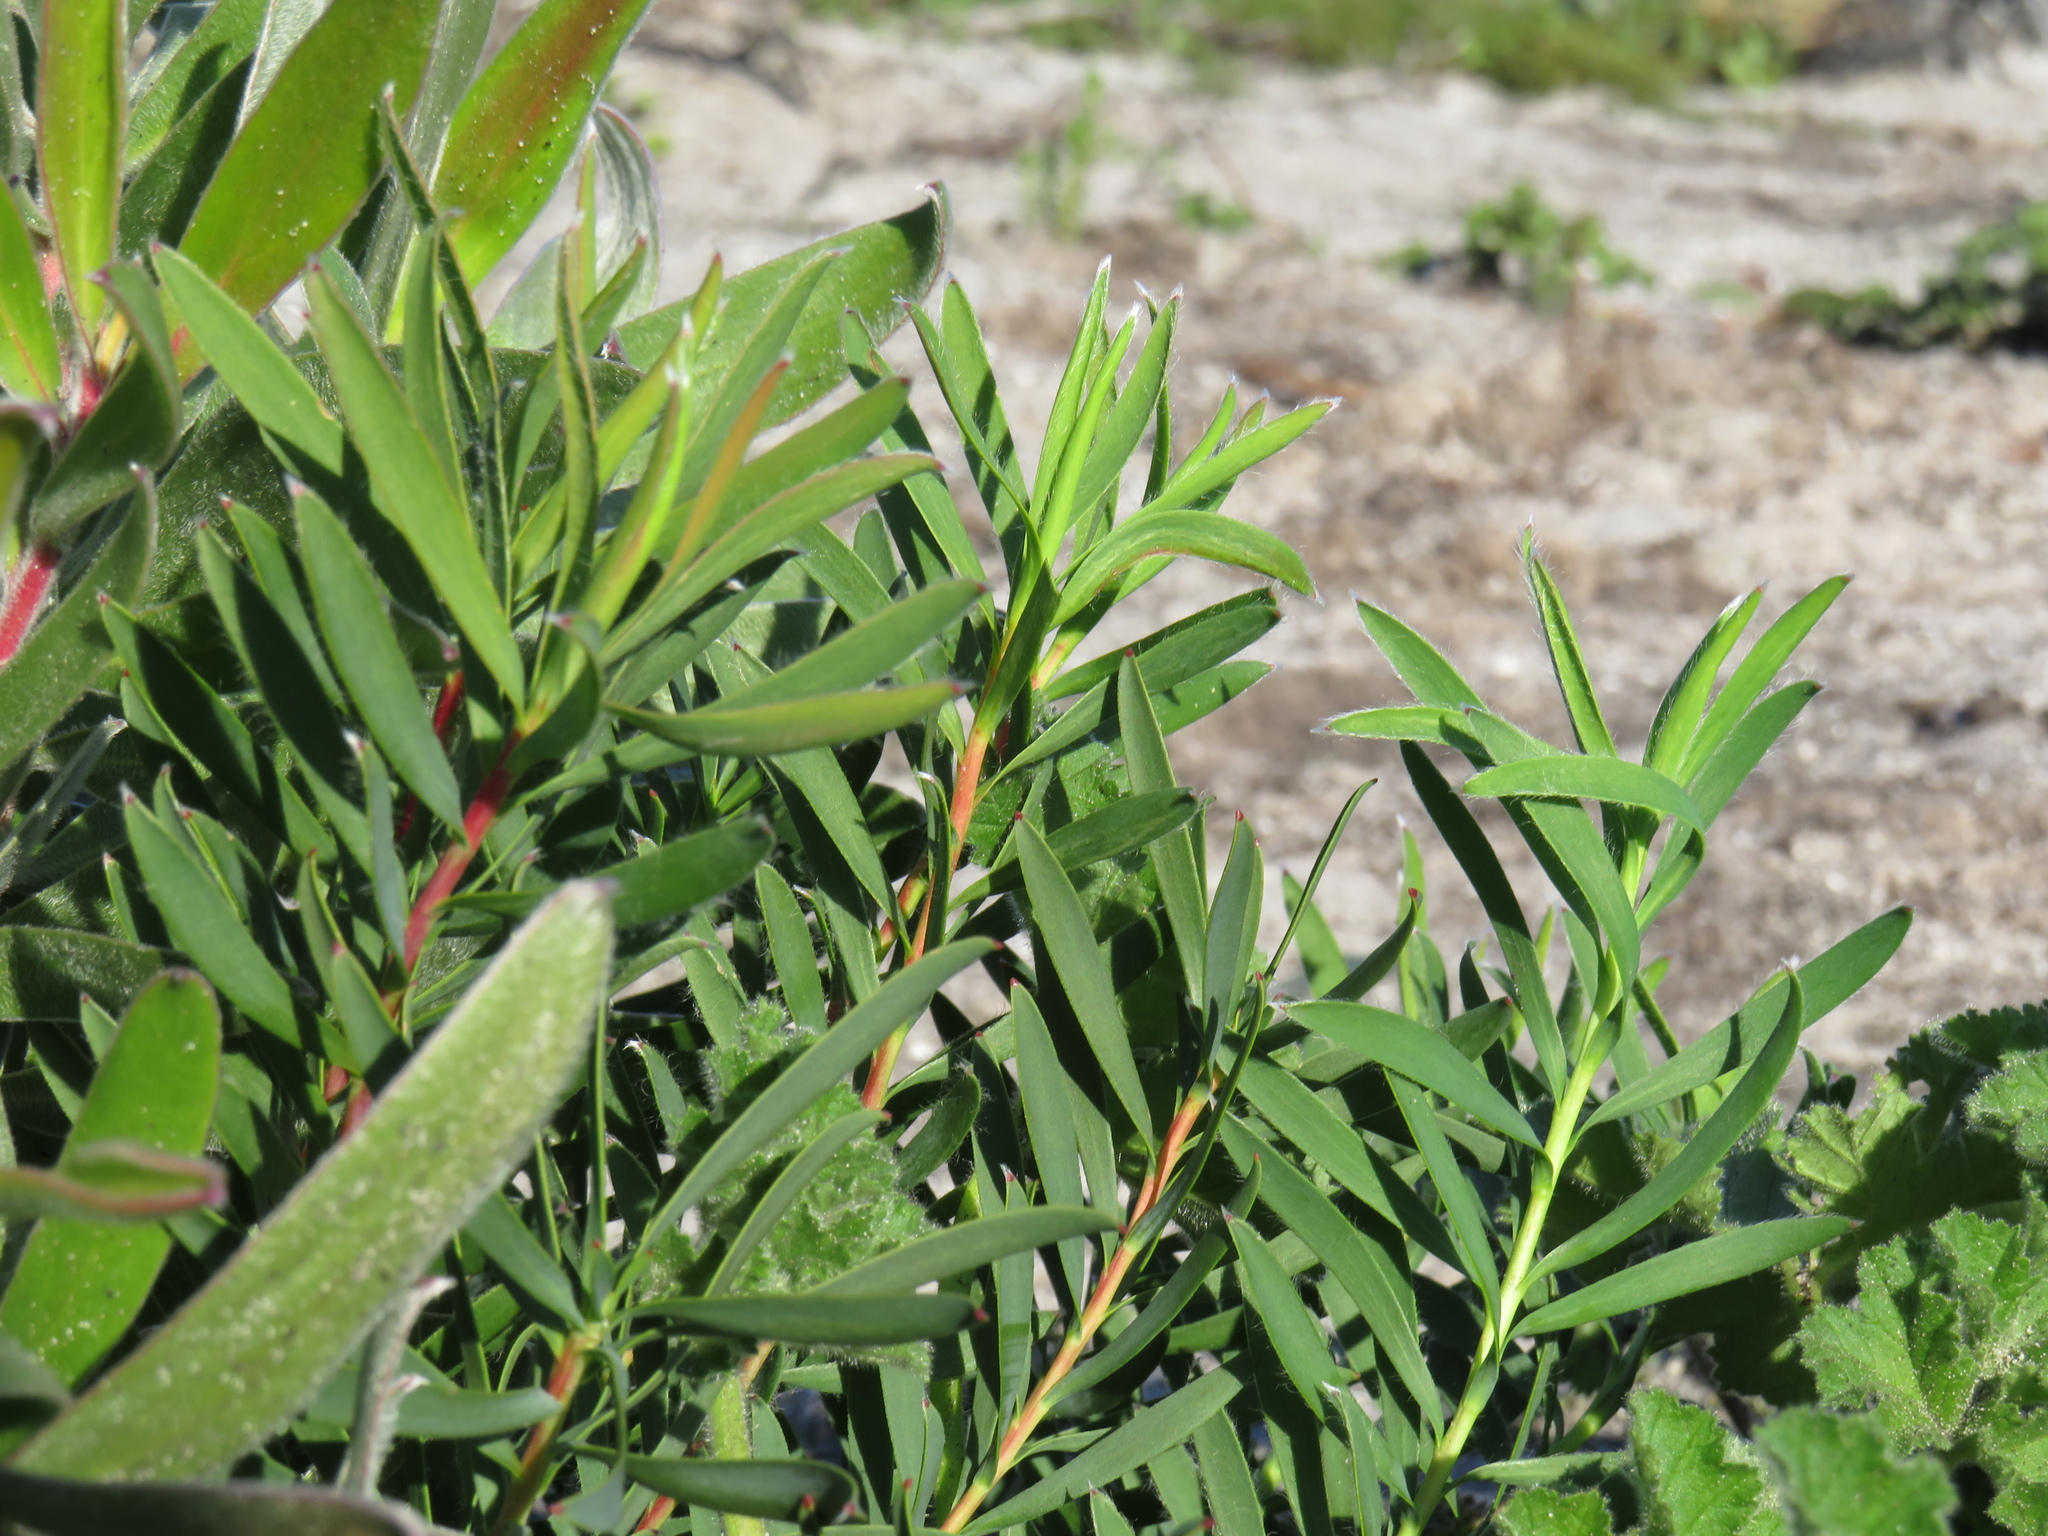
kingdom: Plantae
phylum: Tracheophyta
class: Magnoliopsida
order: Proteales
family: Proteaceae
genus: Leucadendron
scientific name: Leucadendron salignum
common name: Common sunshine conebush
